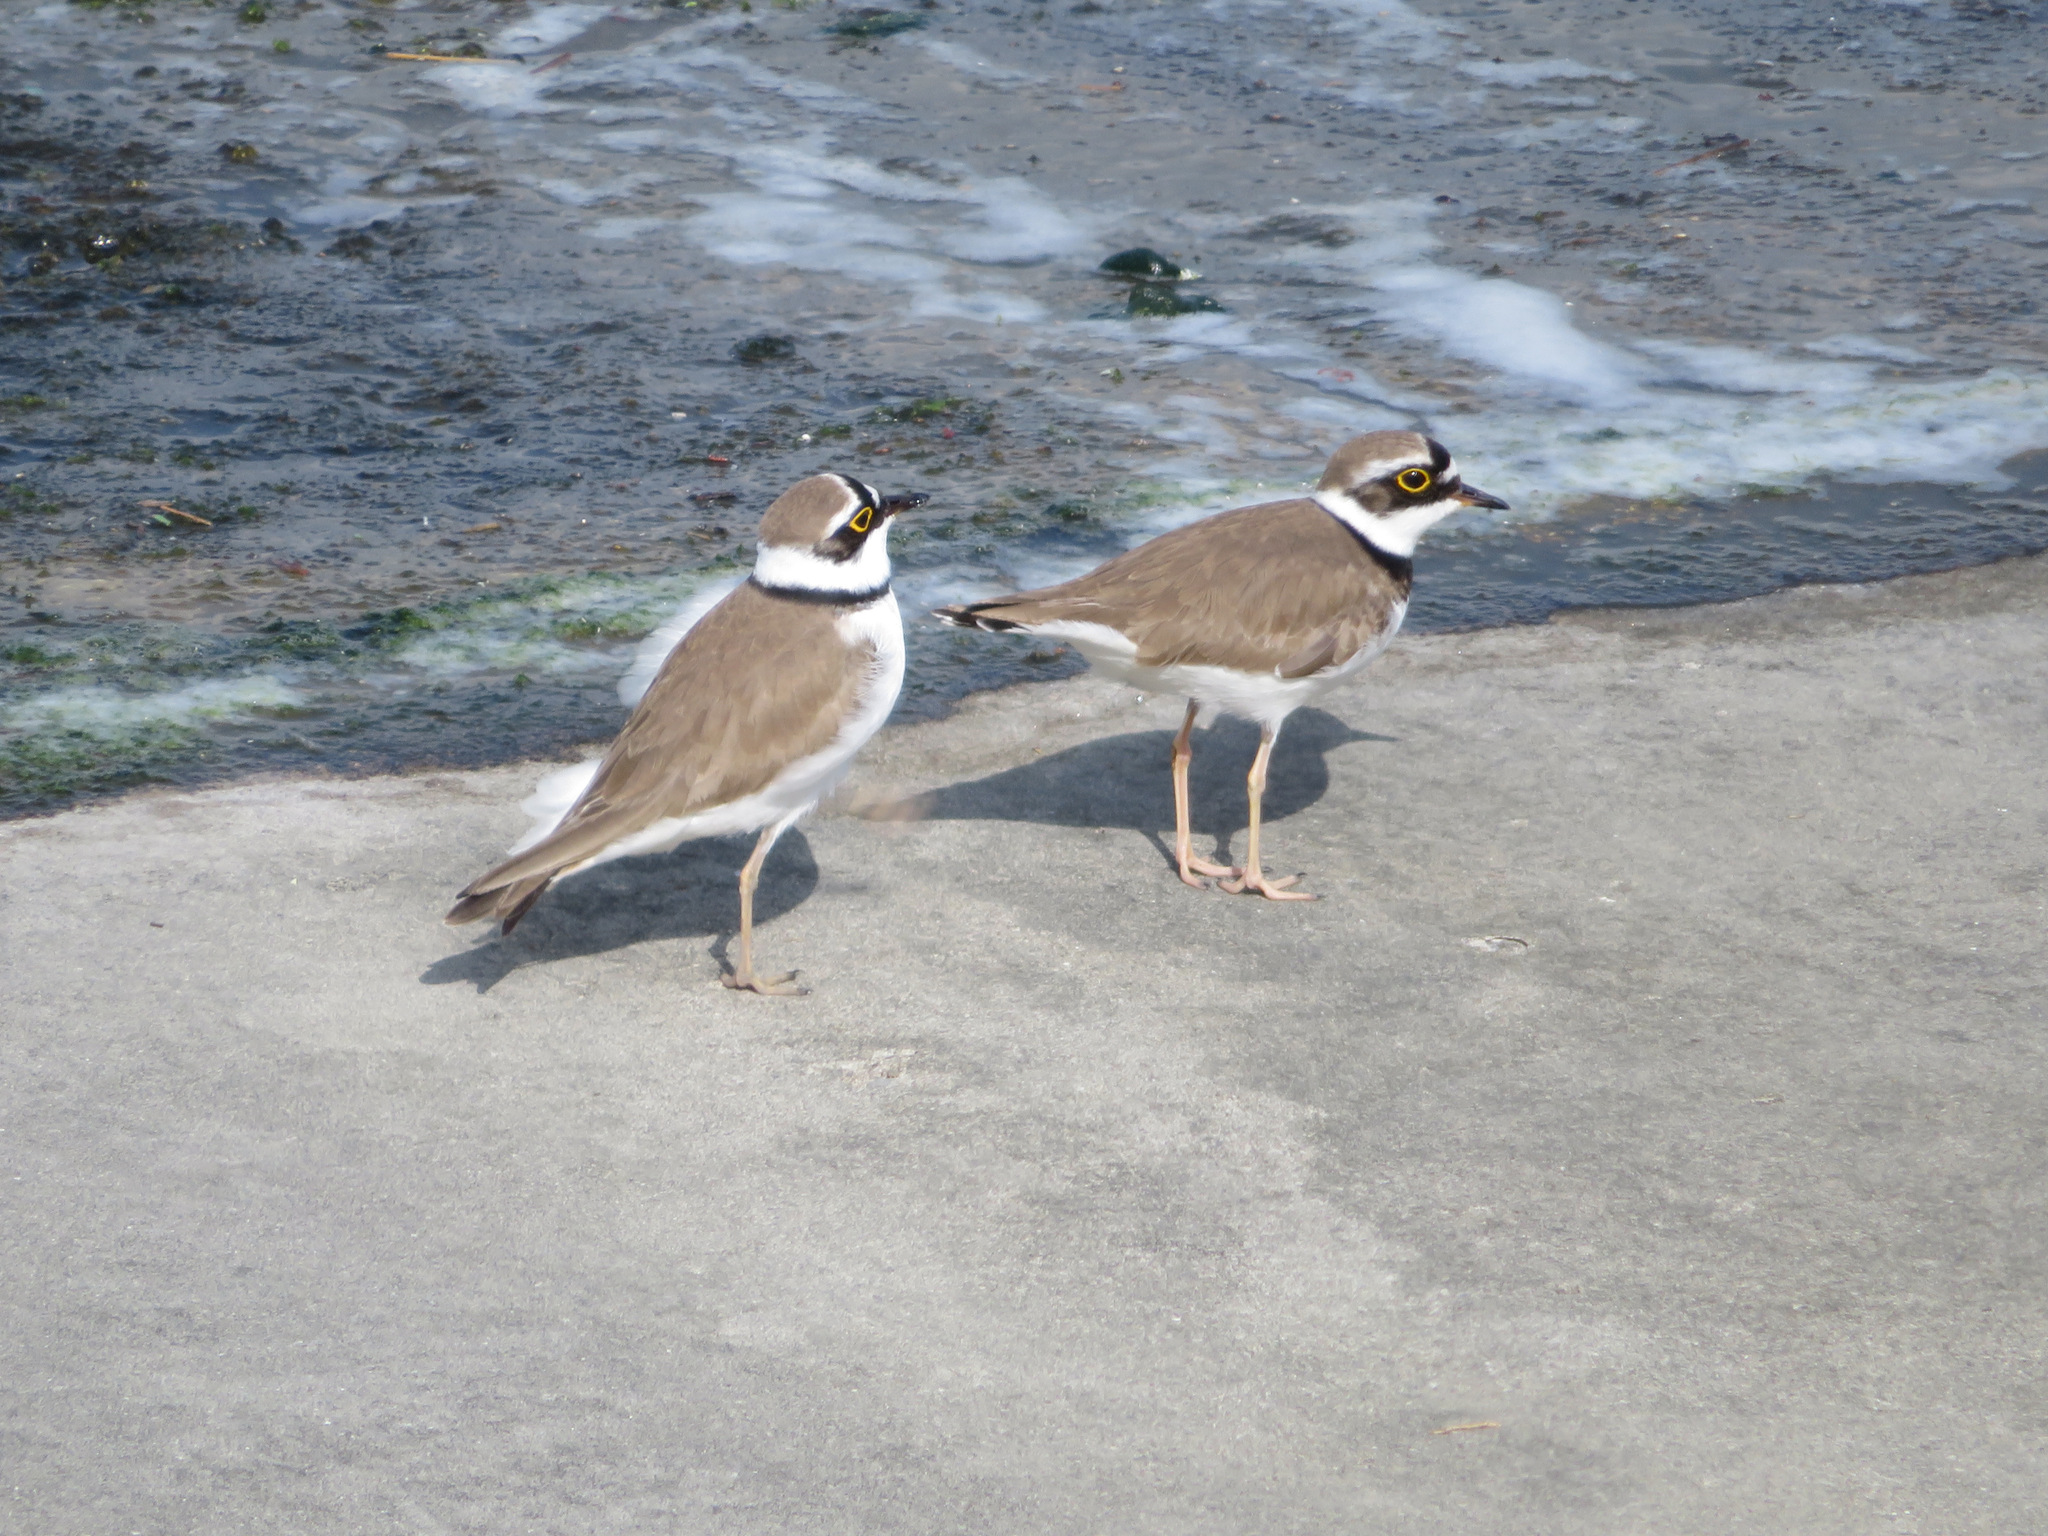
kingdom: Animalia
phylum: Chordata
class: Aves
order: Charadriiformes
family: Charadriidae
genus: Charadrius
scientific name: Charadrius dubius
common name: Little ringed plover
